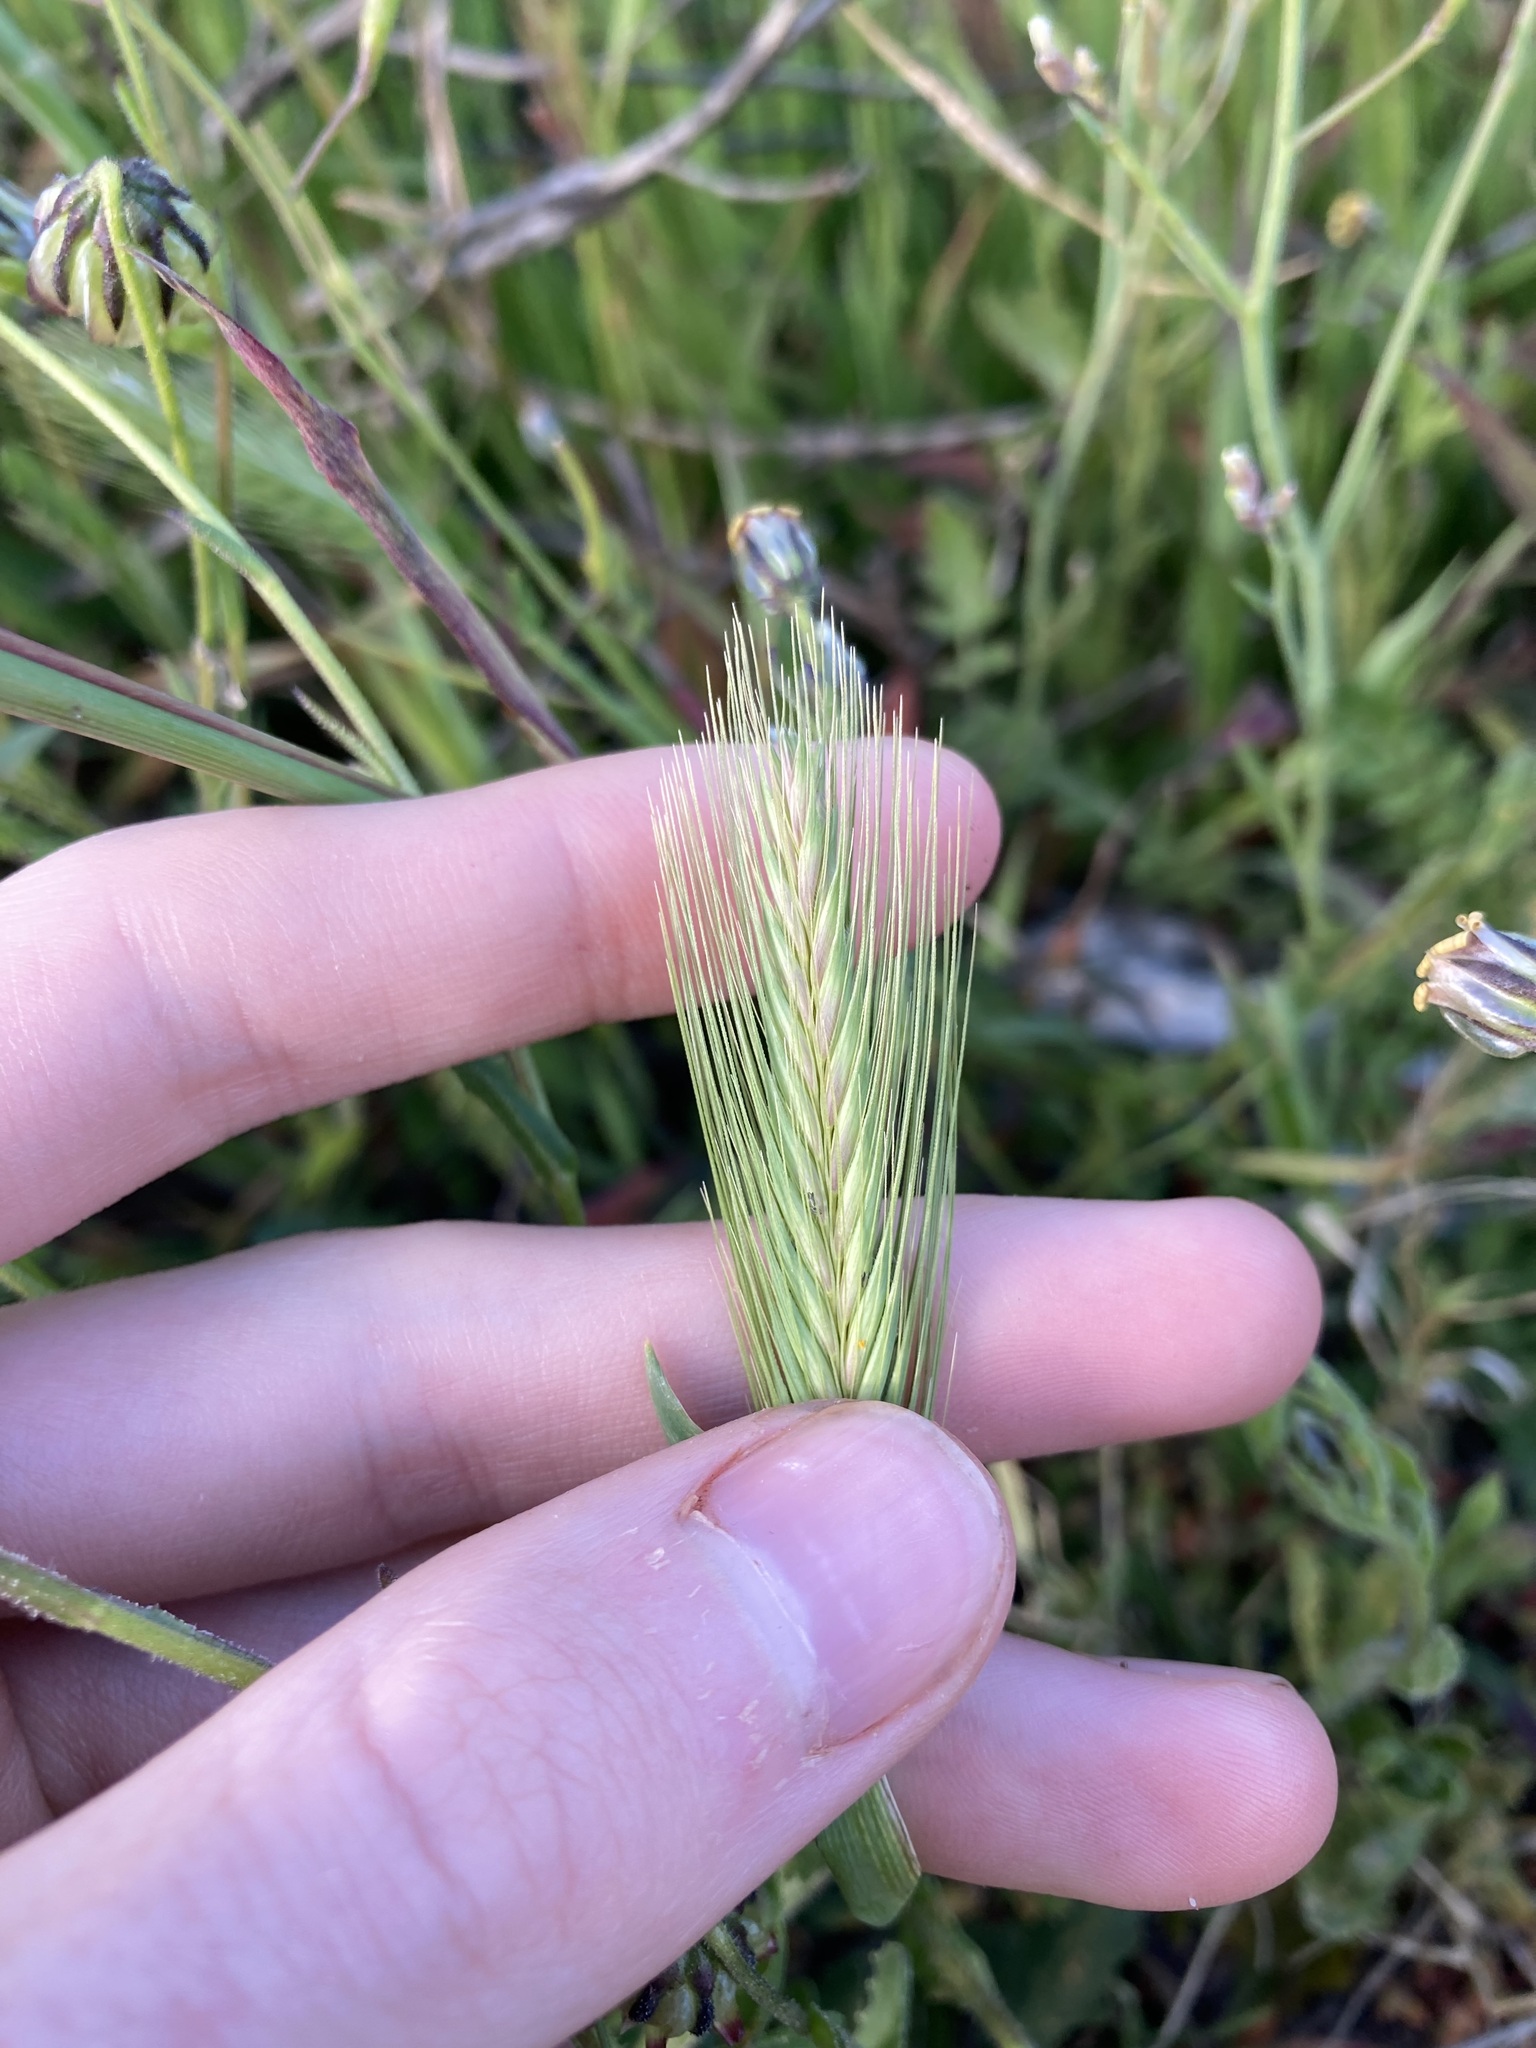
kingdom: Plantae
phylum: Tracheophyta
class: Liliopsida
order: Poales
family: Poaceae
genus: Hordeum
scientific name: Hordeum murinum
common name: Wall barley
